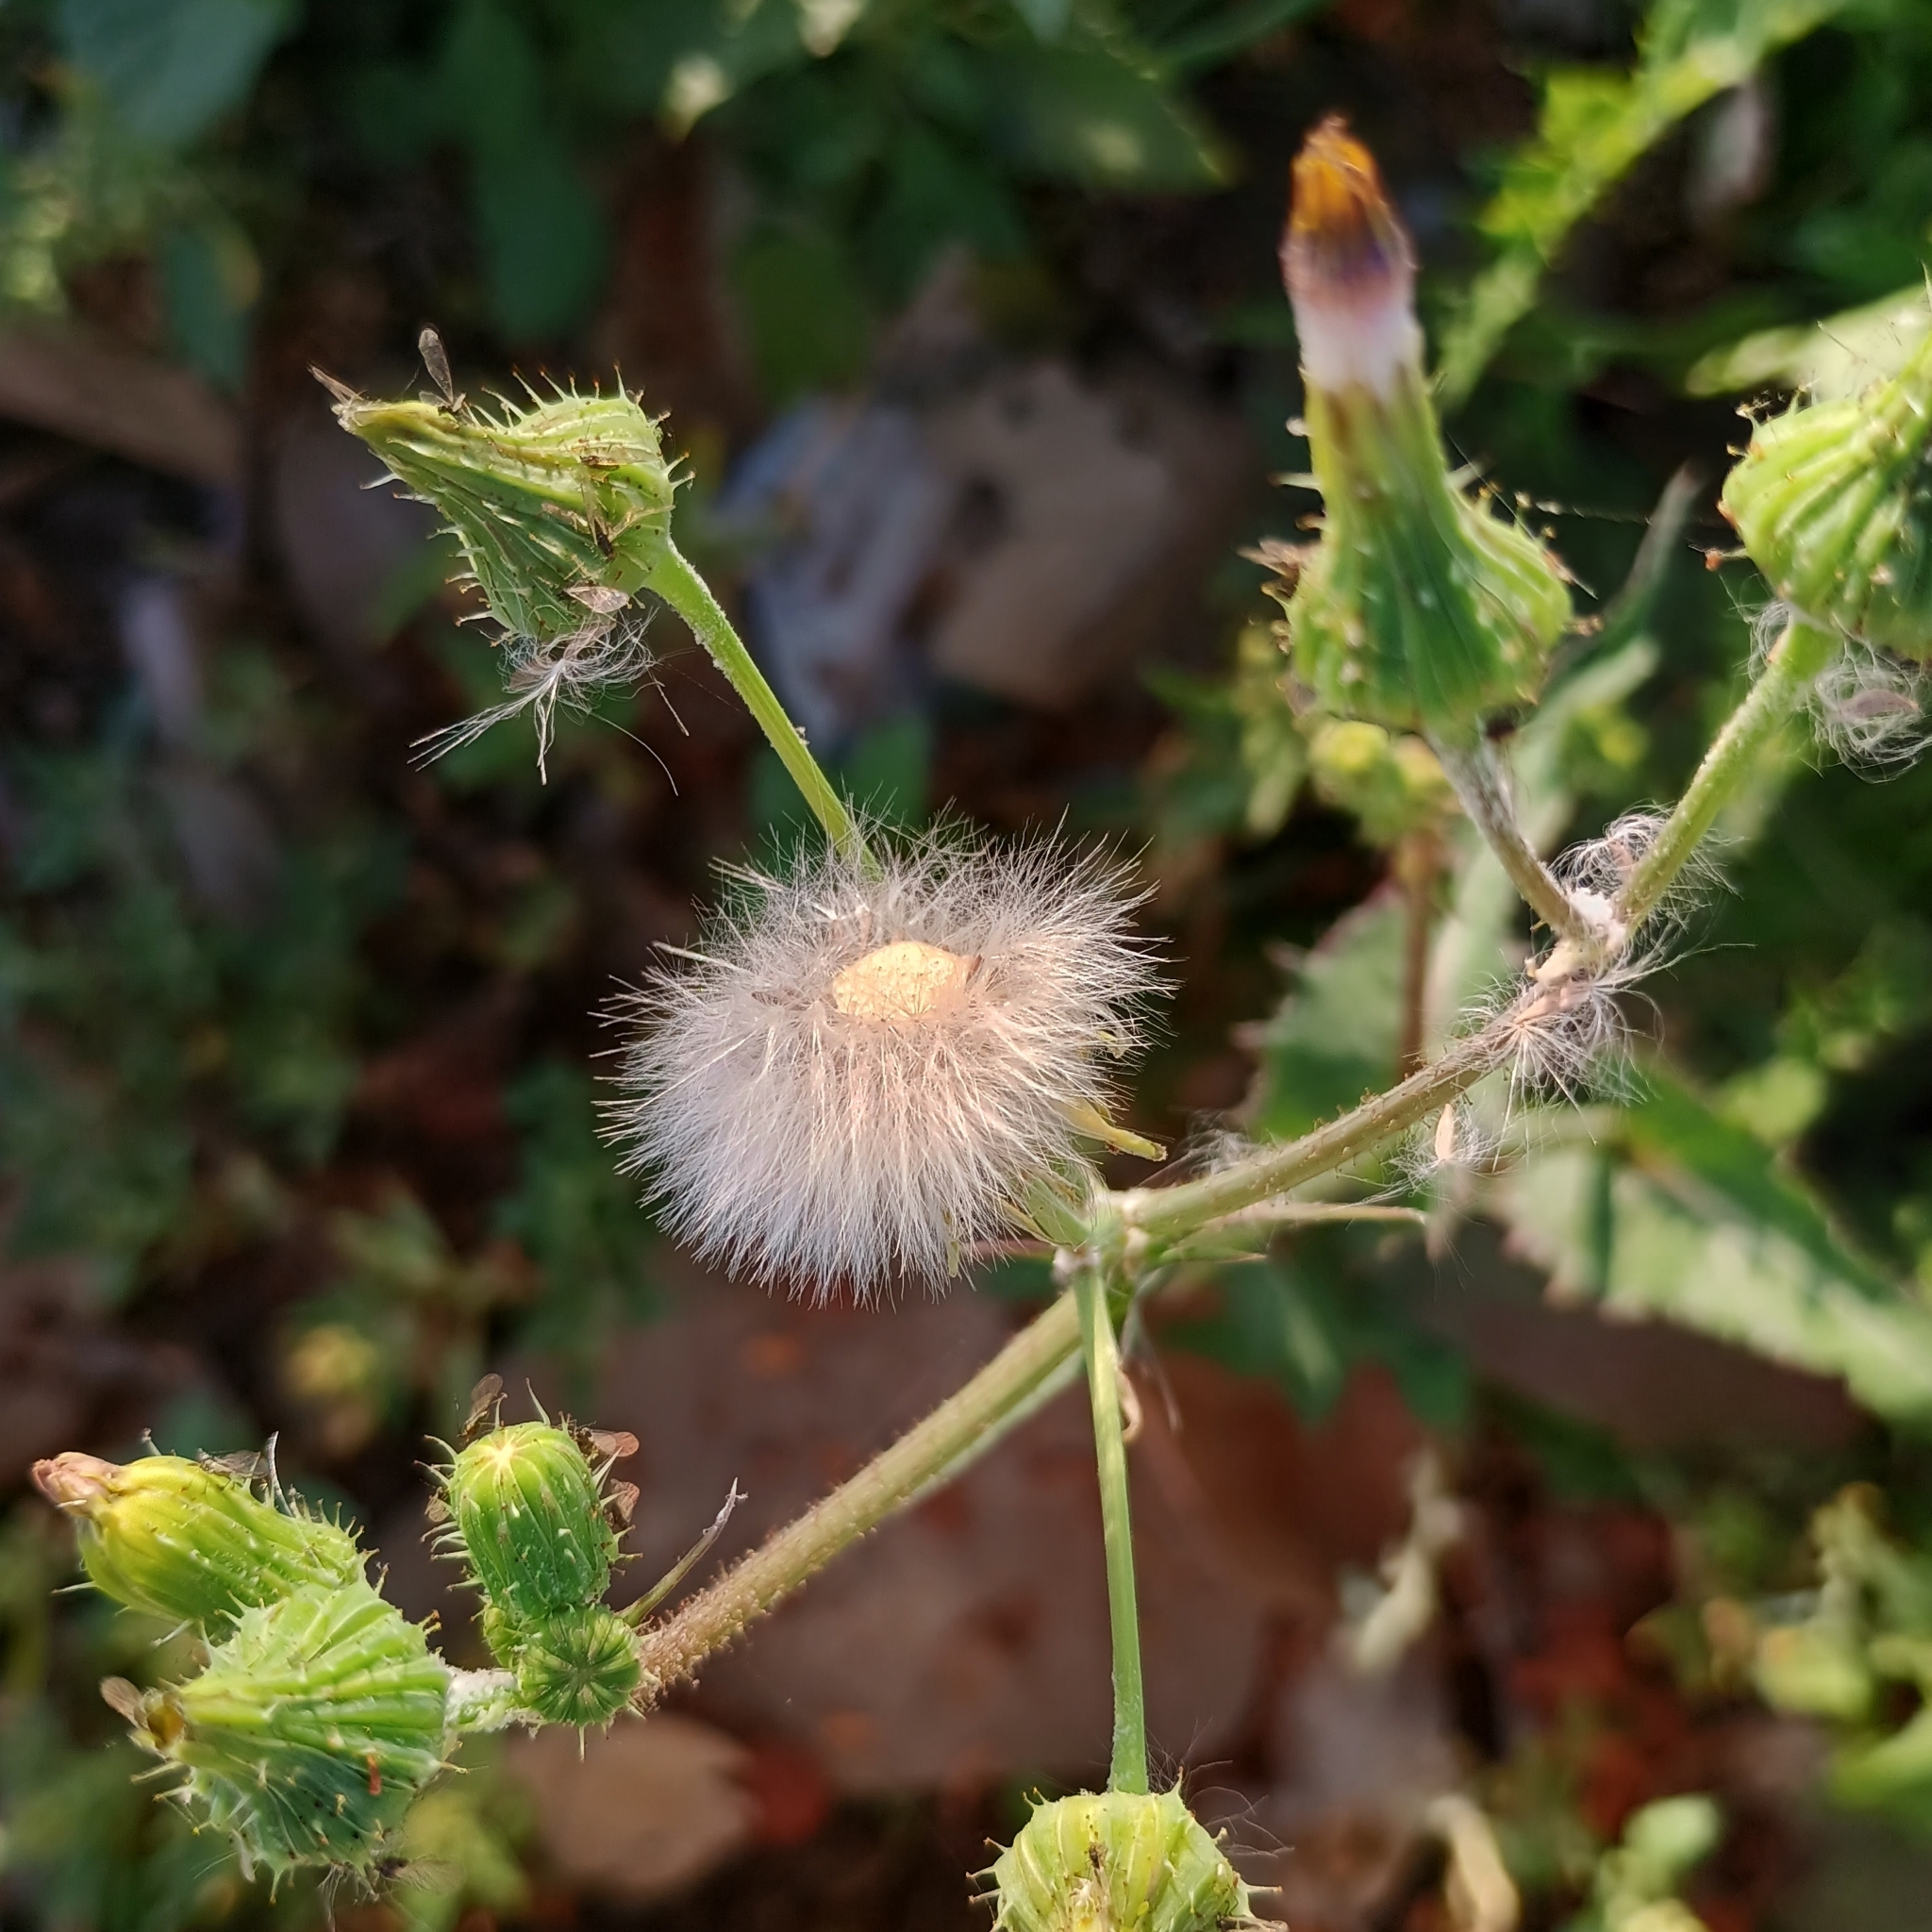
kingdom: Plantae
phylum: Tracheophyta
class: Magnoliopsida
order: Asterales
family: Asteraceae
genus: Sonchus
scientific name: Sonchus asper
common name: Prickly sow-thistle
